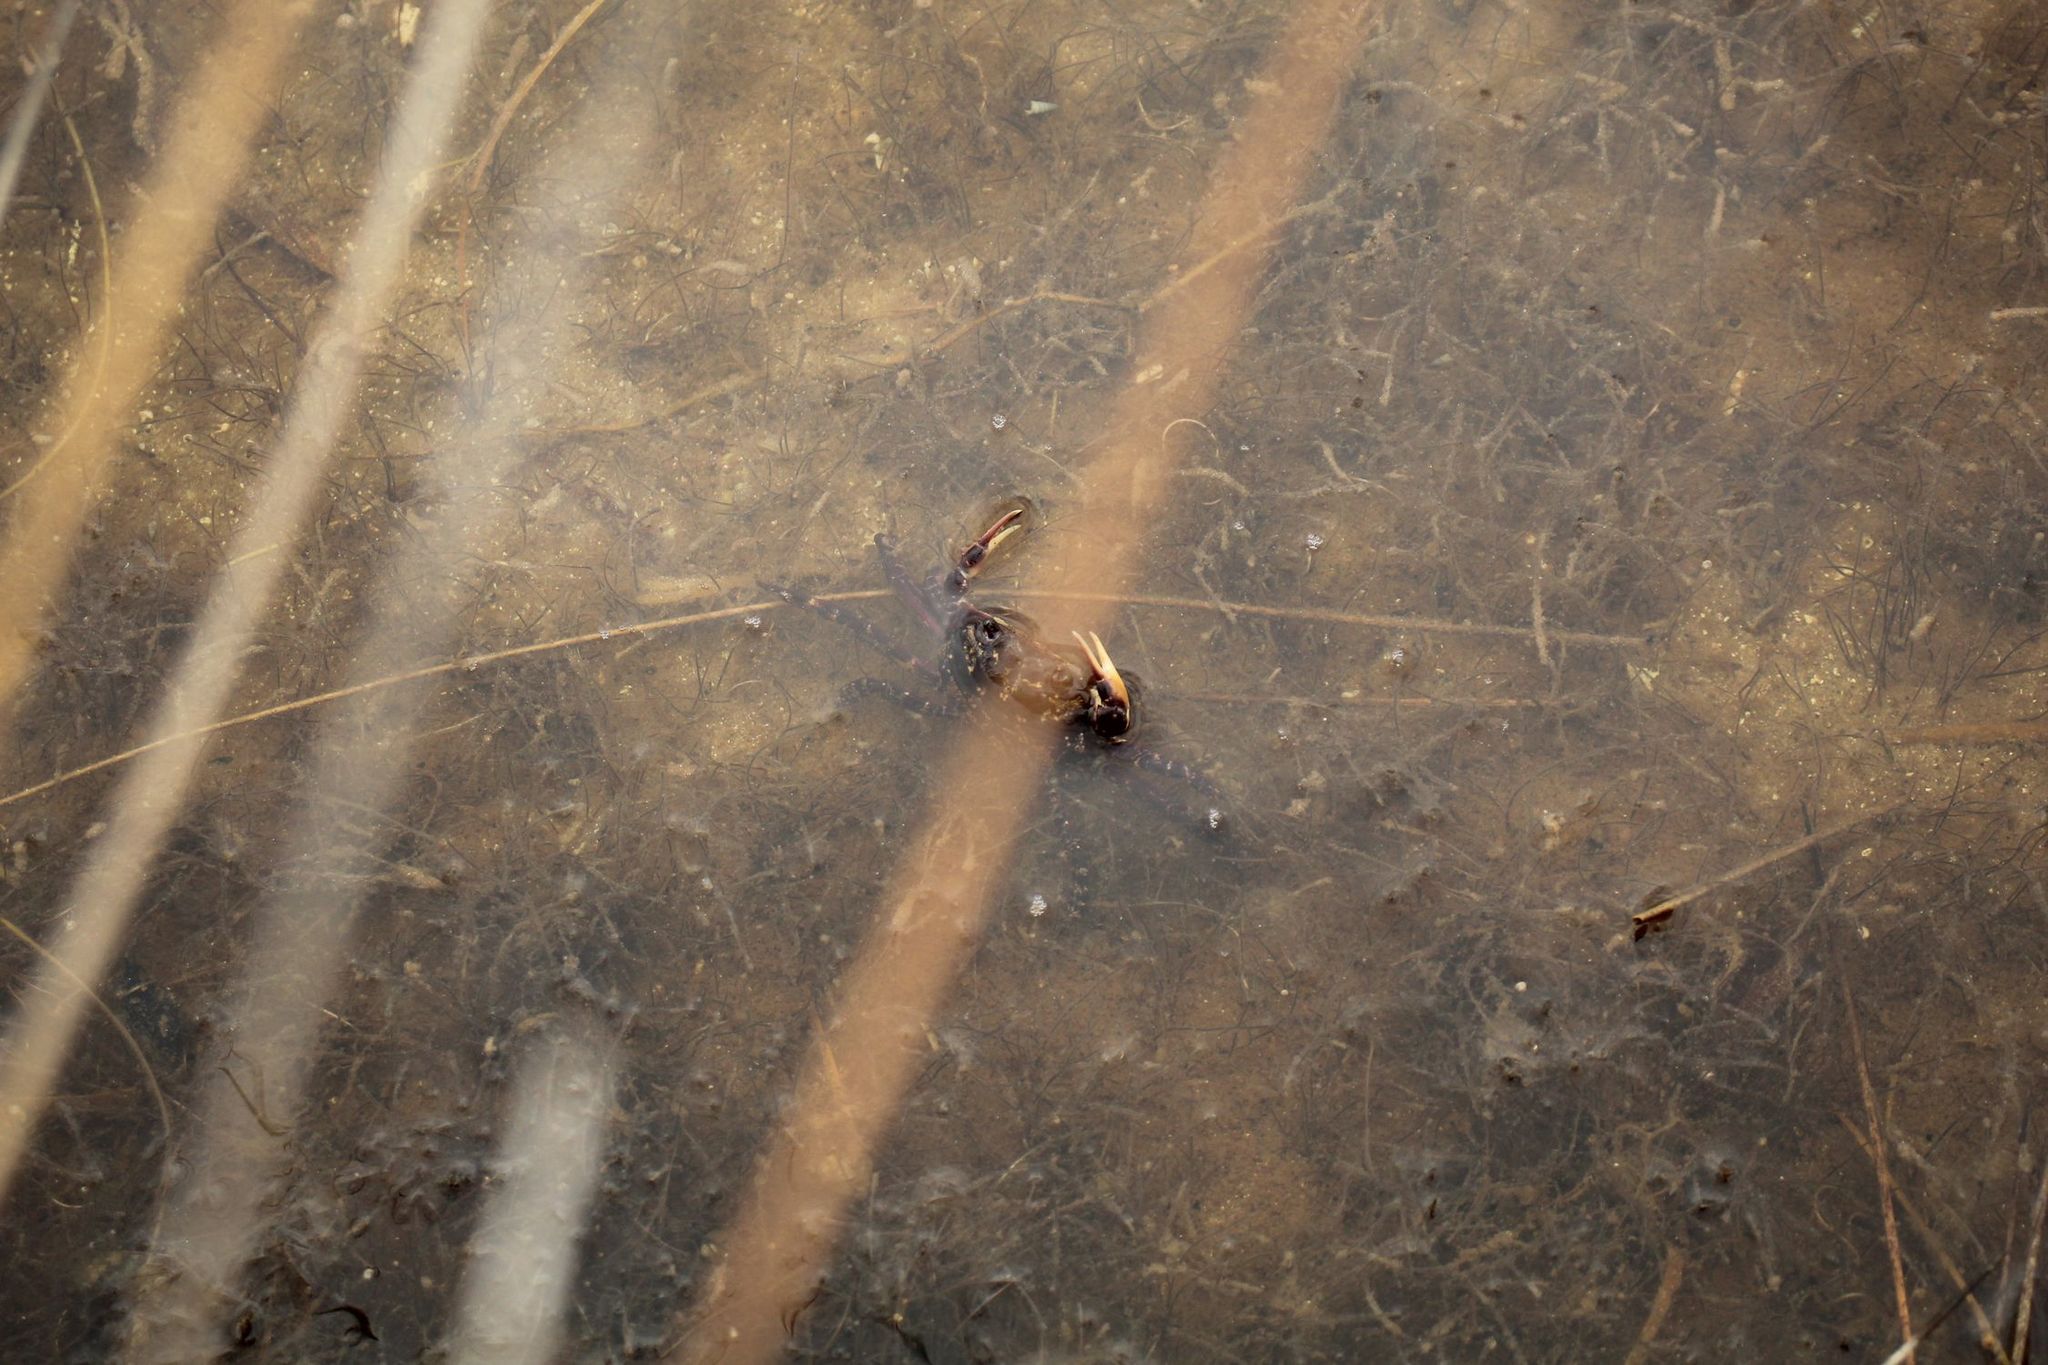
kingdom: Animalia
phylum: Arthropoda
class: Malacostraca
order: Decapoda
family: Leptograpsodidae
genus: Leptograpsodes
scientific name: Leptograpsodes octodentatus
